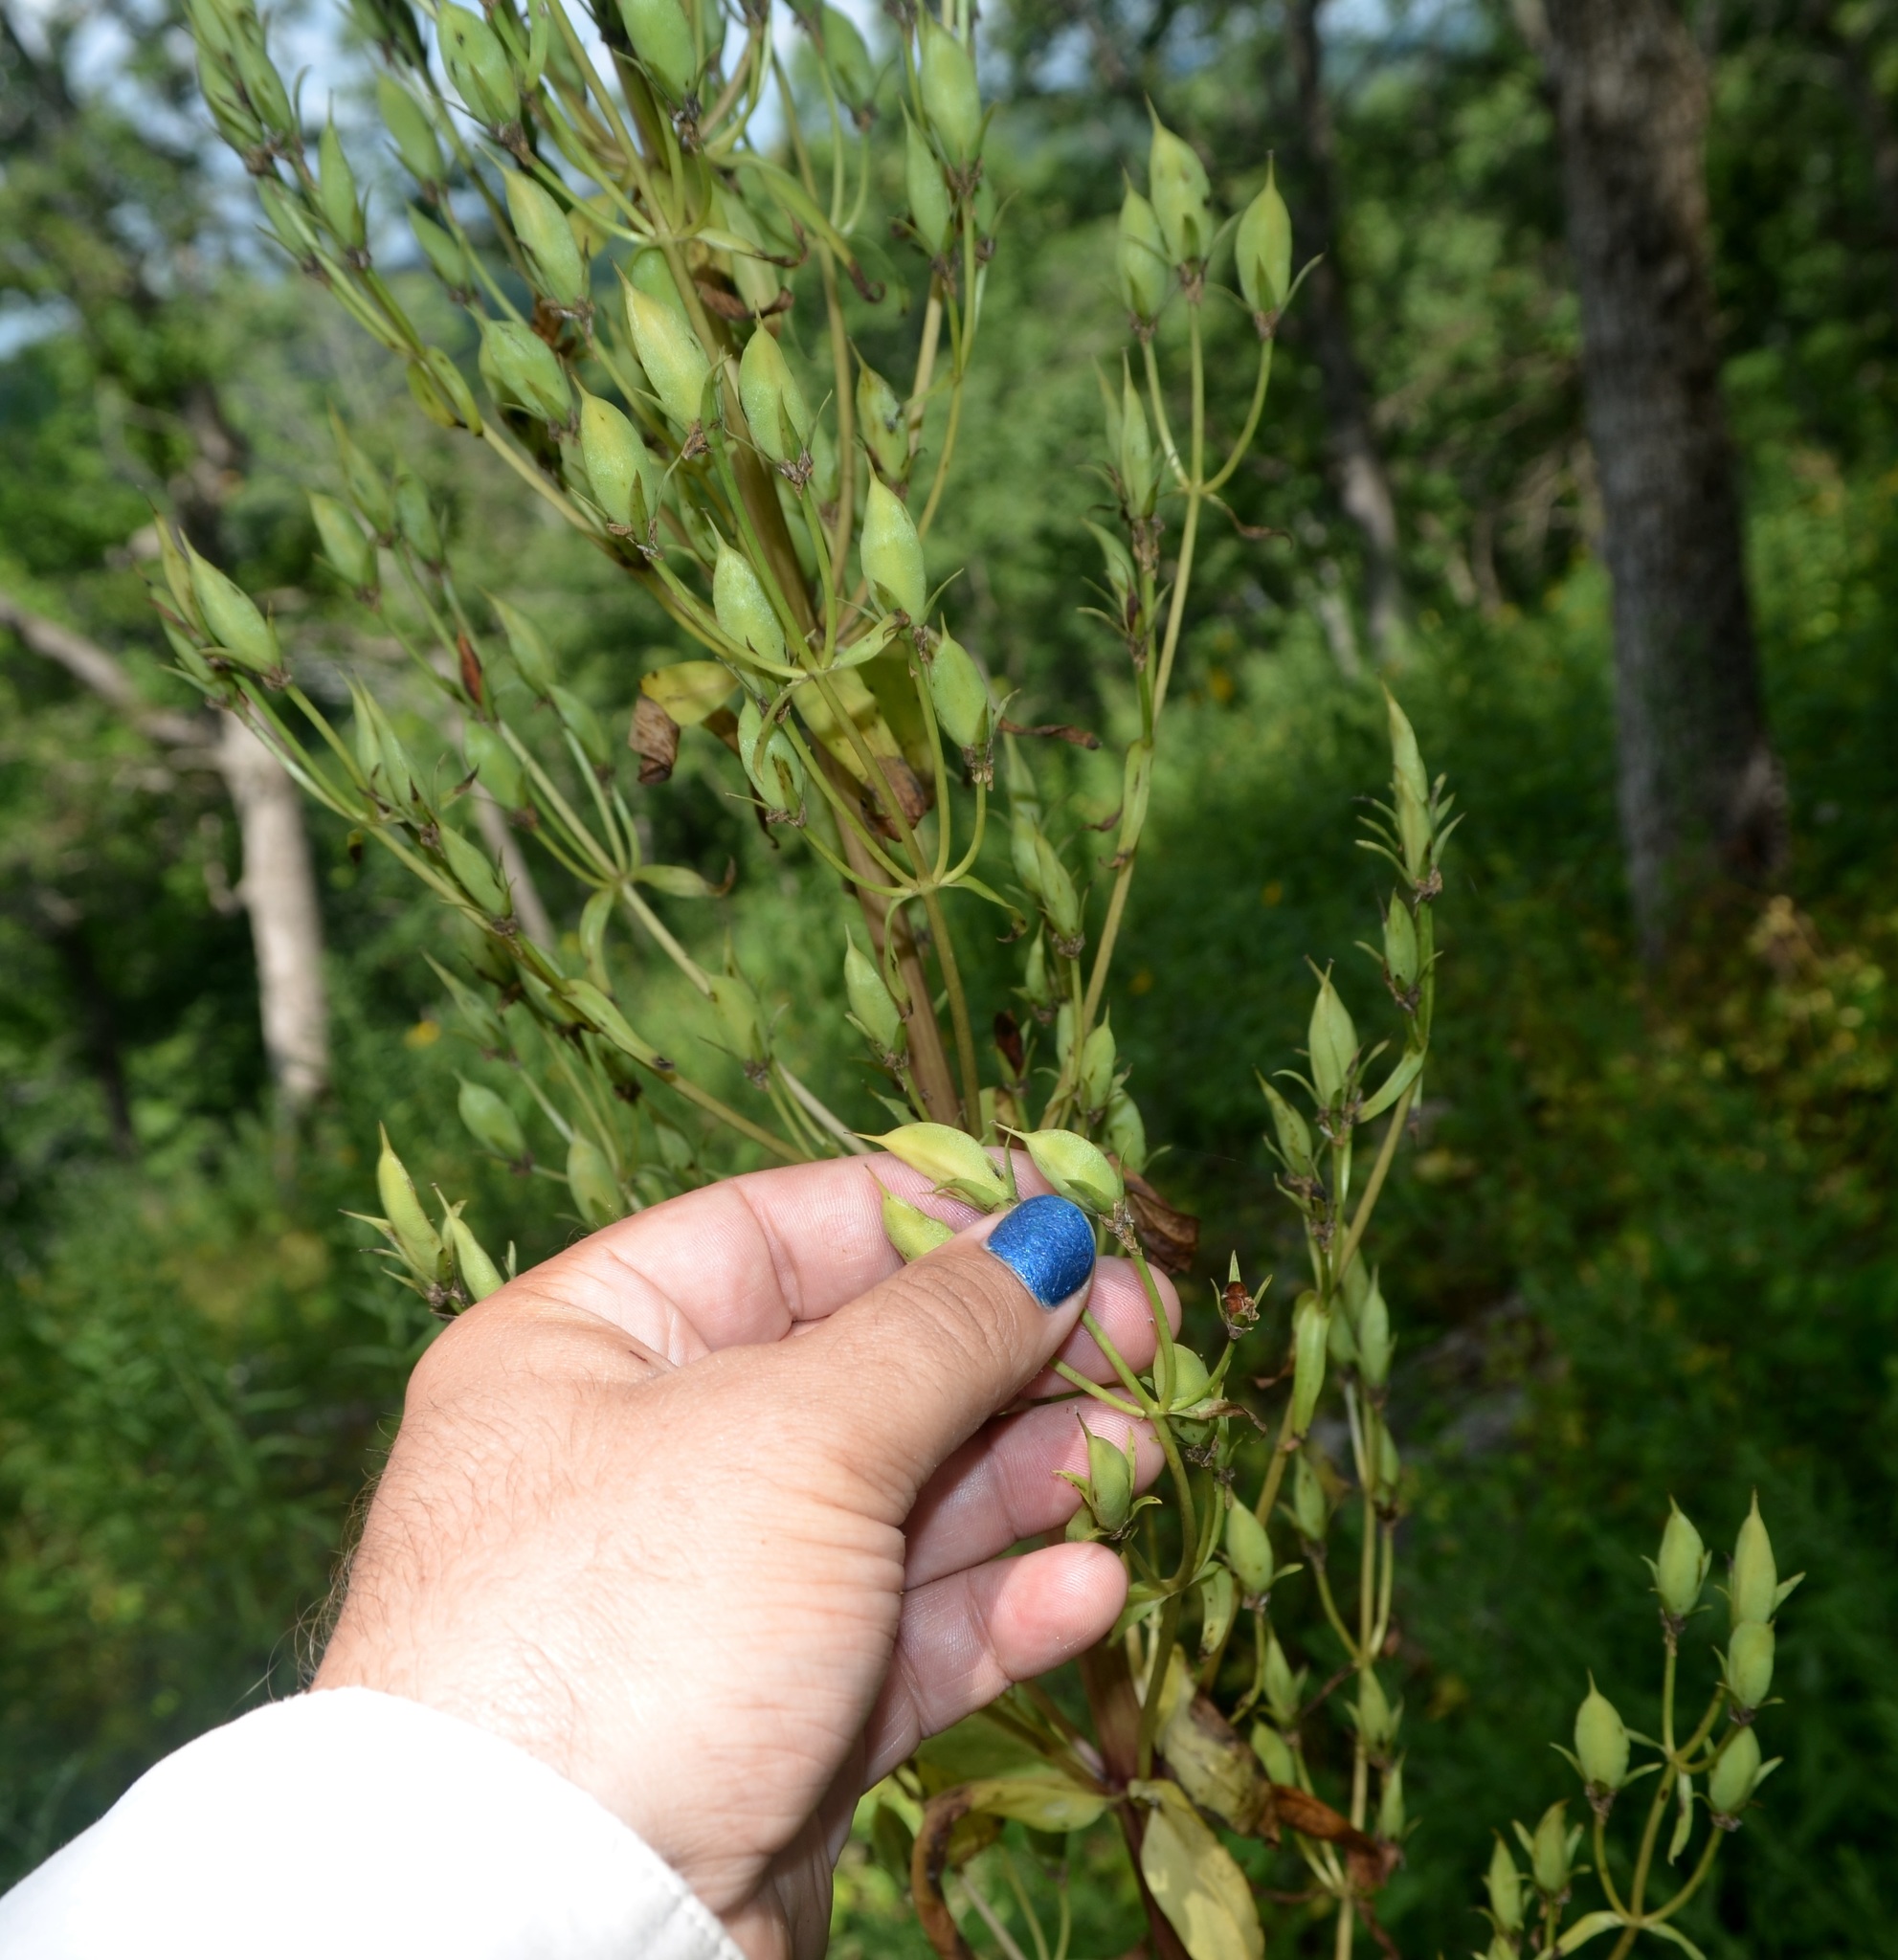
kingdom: Plantae
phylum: Tracheophyta
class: Magnoliopsida
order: Gentianales
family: Gentianaceae
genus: Frasera
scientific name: Frasera caroliniensis
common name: American columbo
